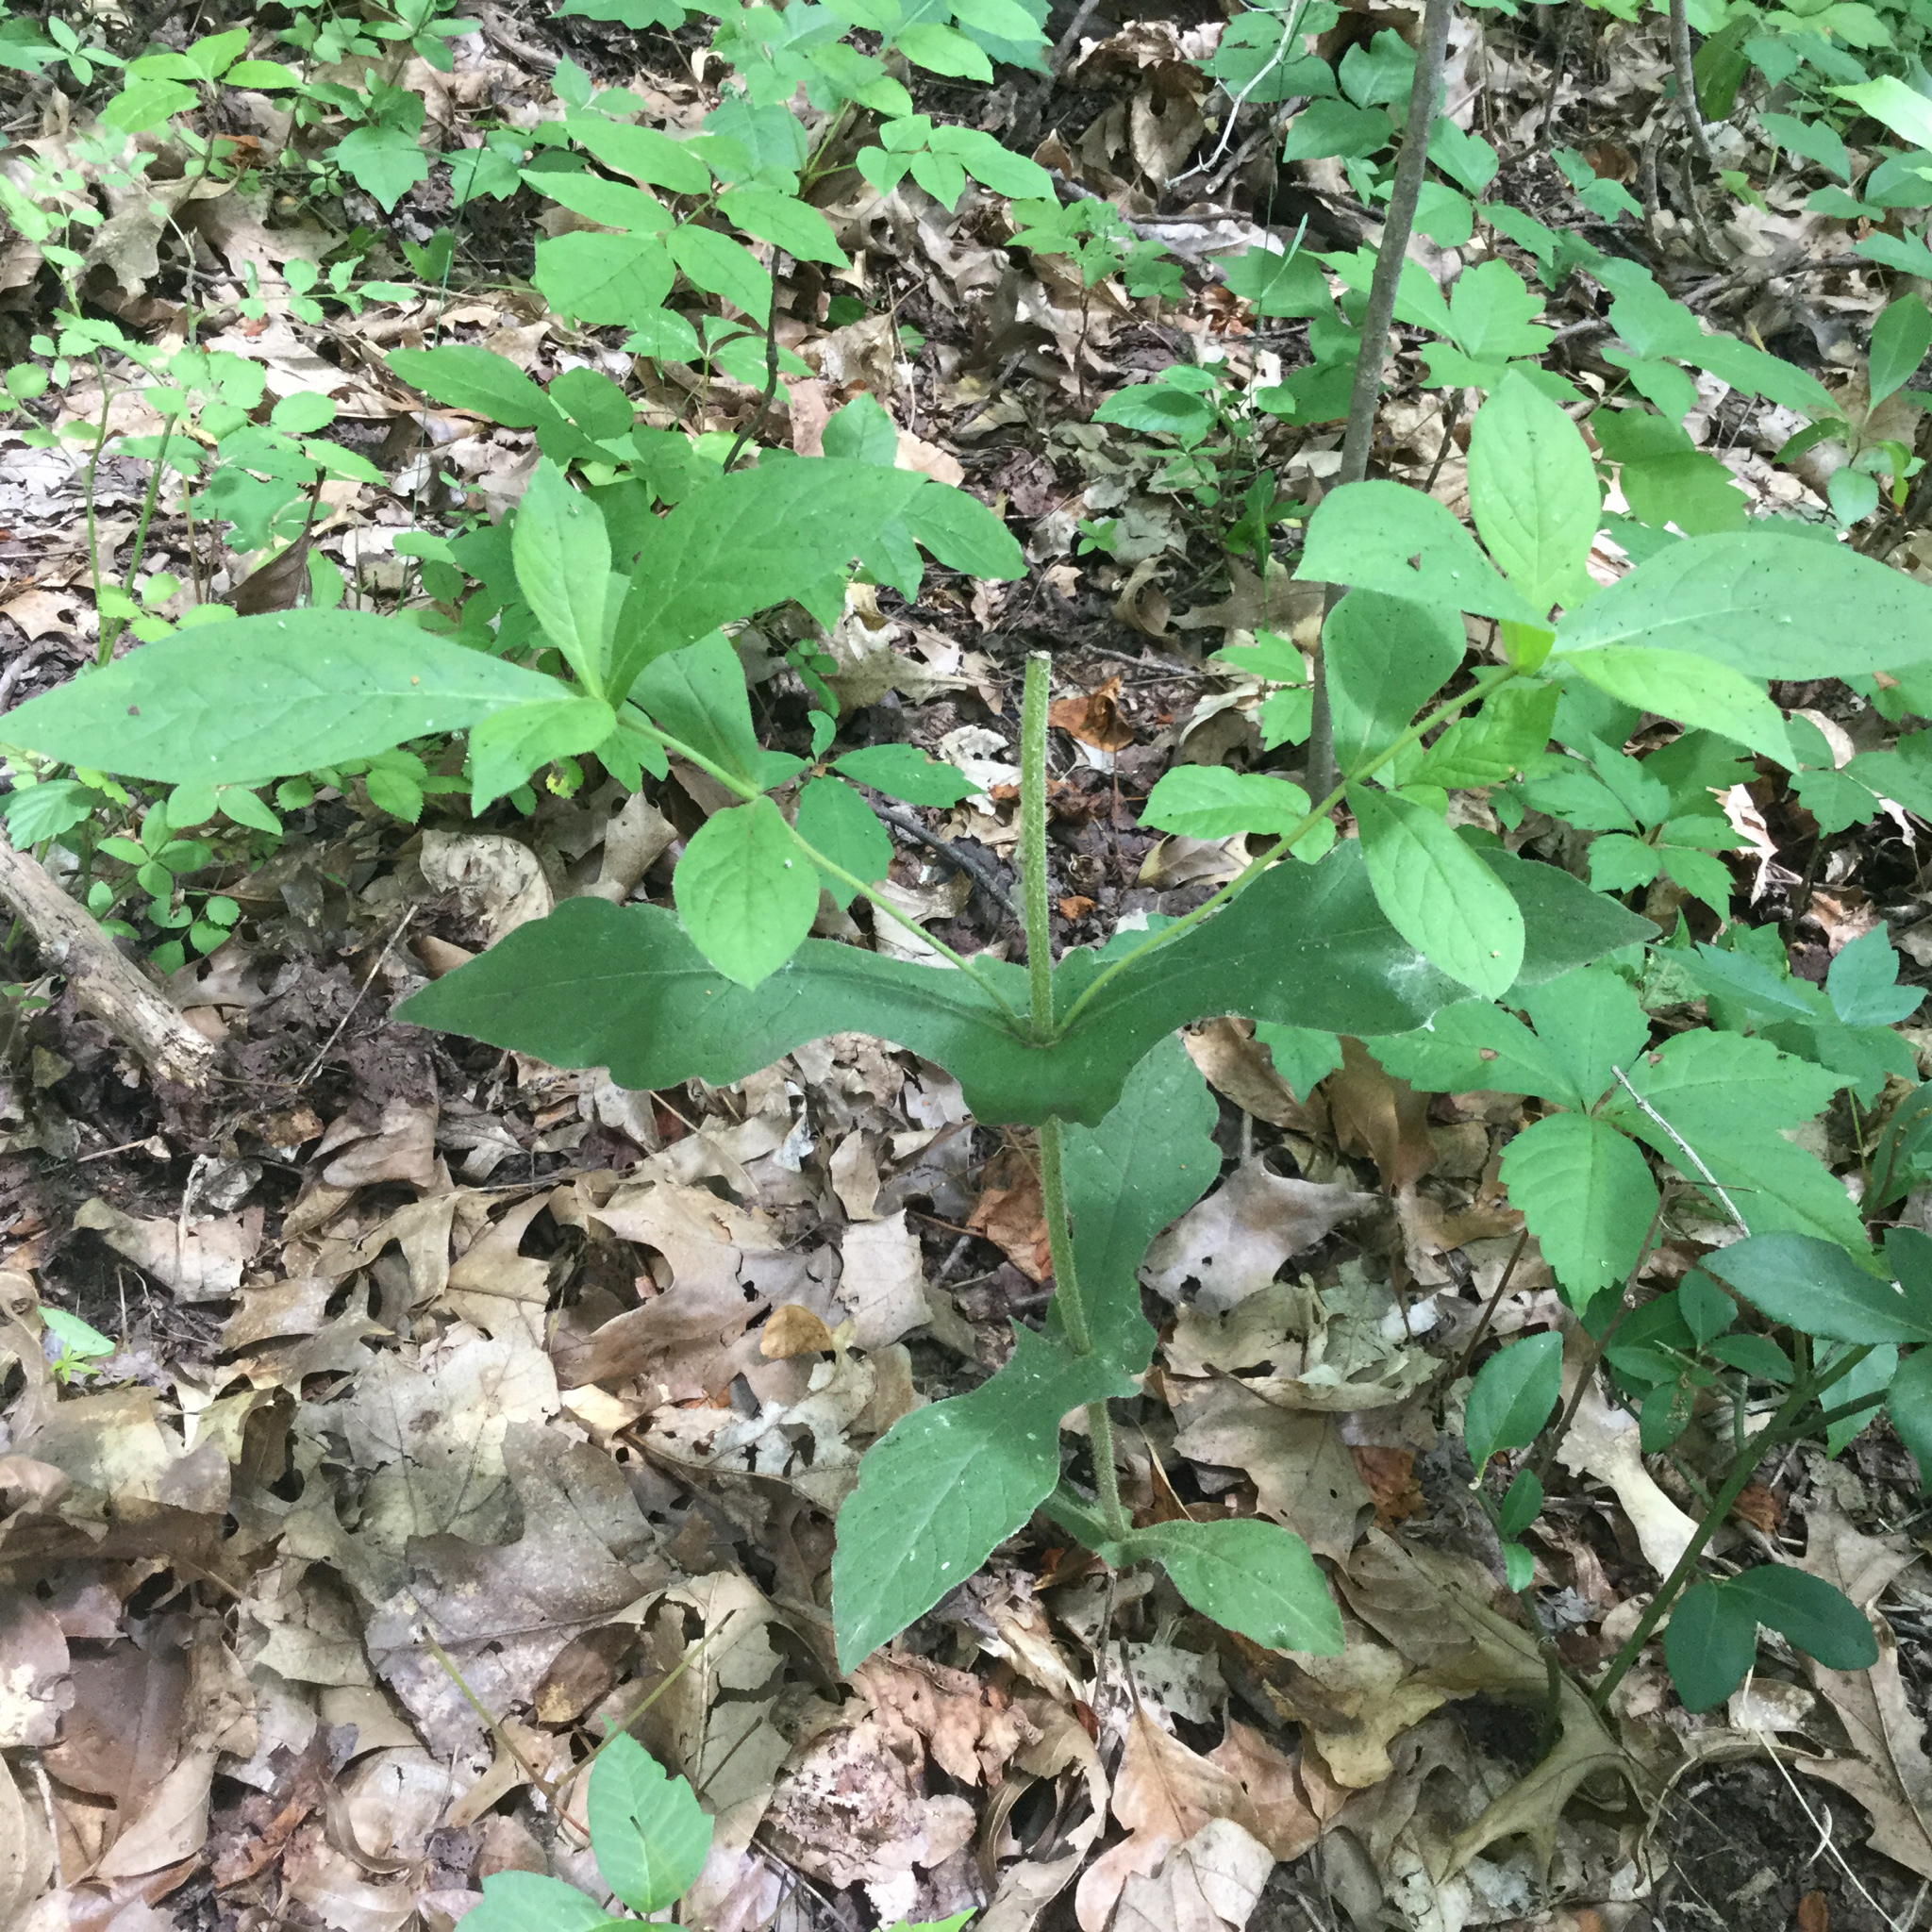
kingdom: Plantae
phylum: Tracheophyta
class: Magnoliopsida
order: Dipsacales
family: Caprifoliaceae
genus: Triosteum
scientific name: Triosteum perfoliatum
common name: Common horse-gentian
